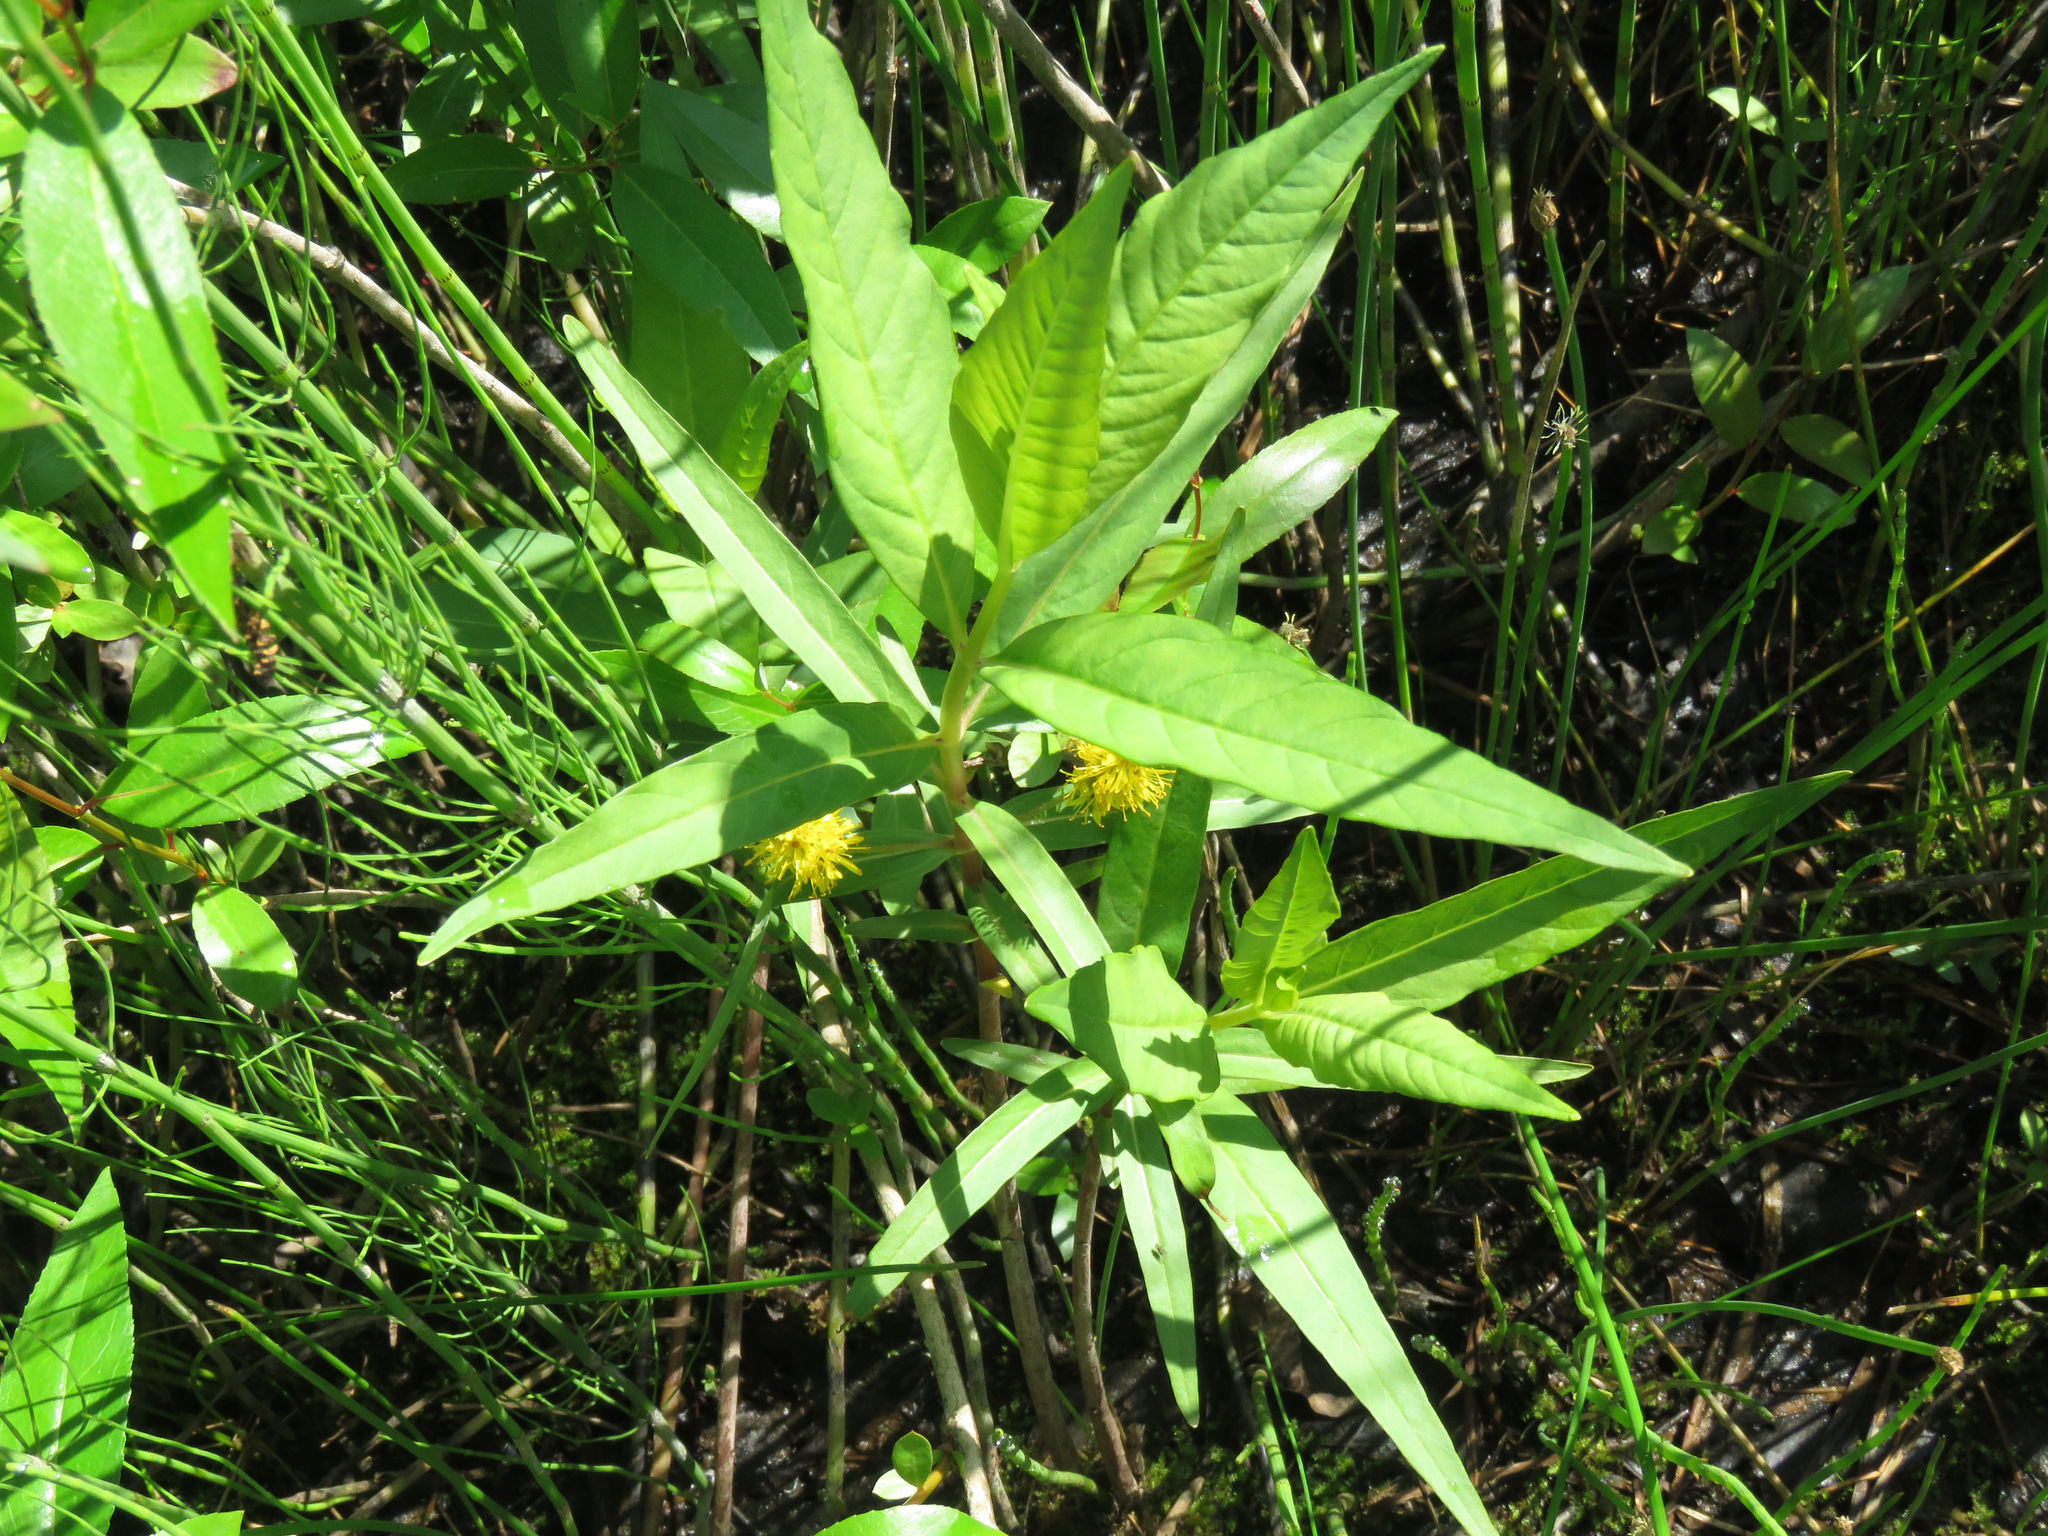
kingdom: Plantae
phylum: Tracheophyta
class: Magnoliopsida
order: Ericales
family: Primulaceae
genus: Lysimachia
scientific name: Lysimachia thyrsiflora
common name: Tufted loosestrife
